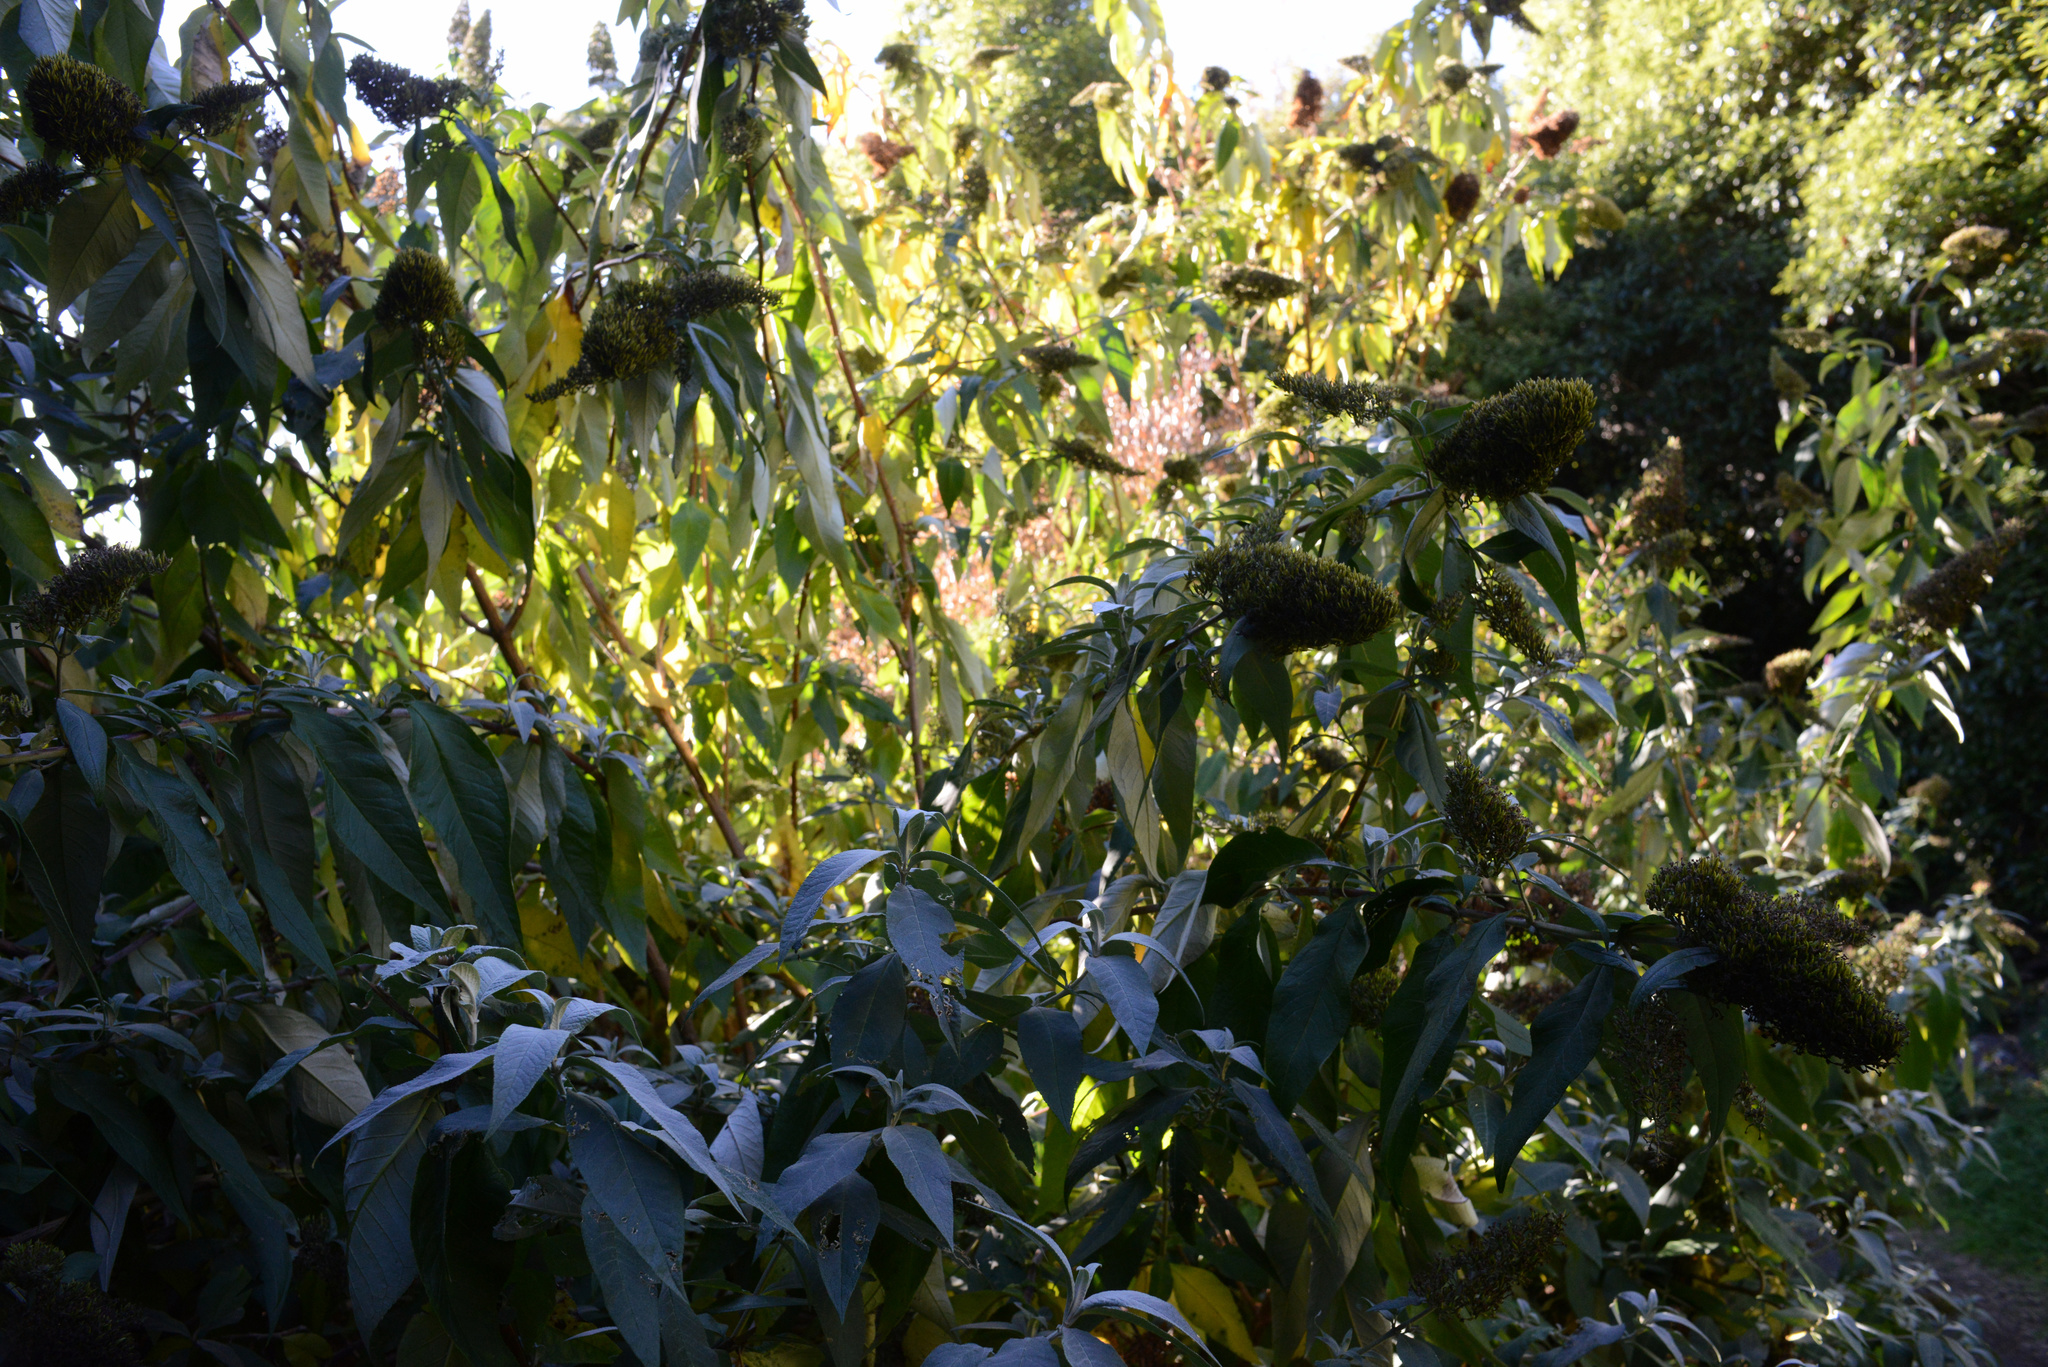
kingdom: Plantae
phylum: Tracheophyta
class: Magnoliopsida
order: Lamiales
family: Scrophulariaceae
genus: Buddleja
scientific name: Buddleja davidii
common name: Butterfly-bush
